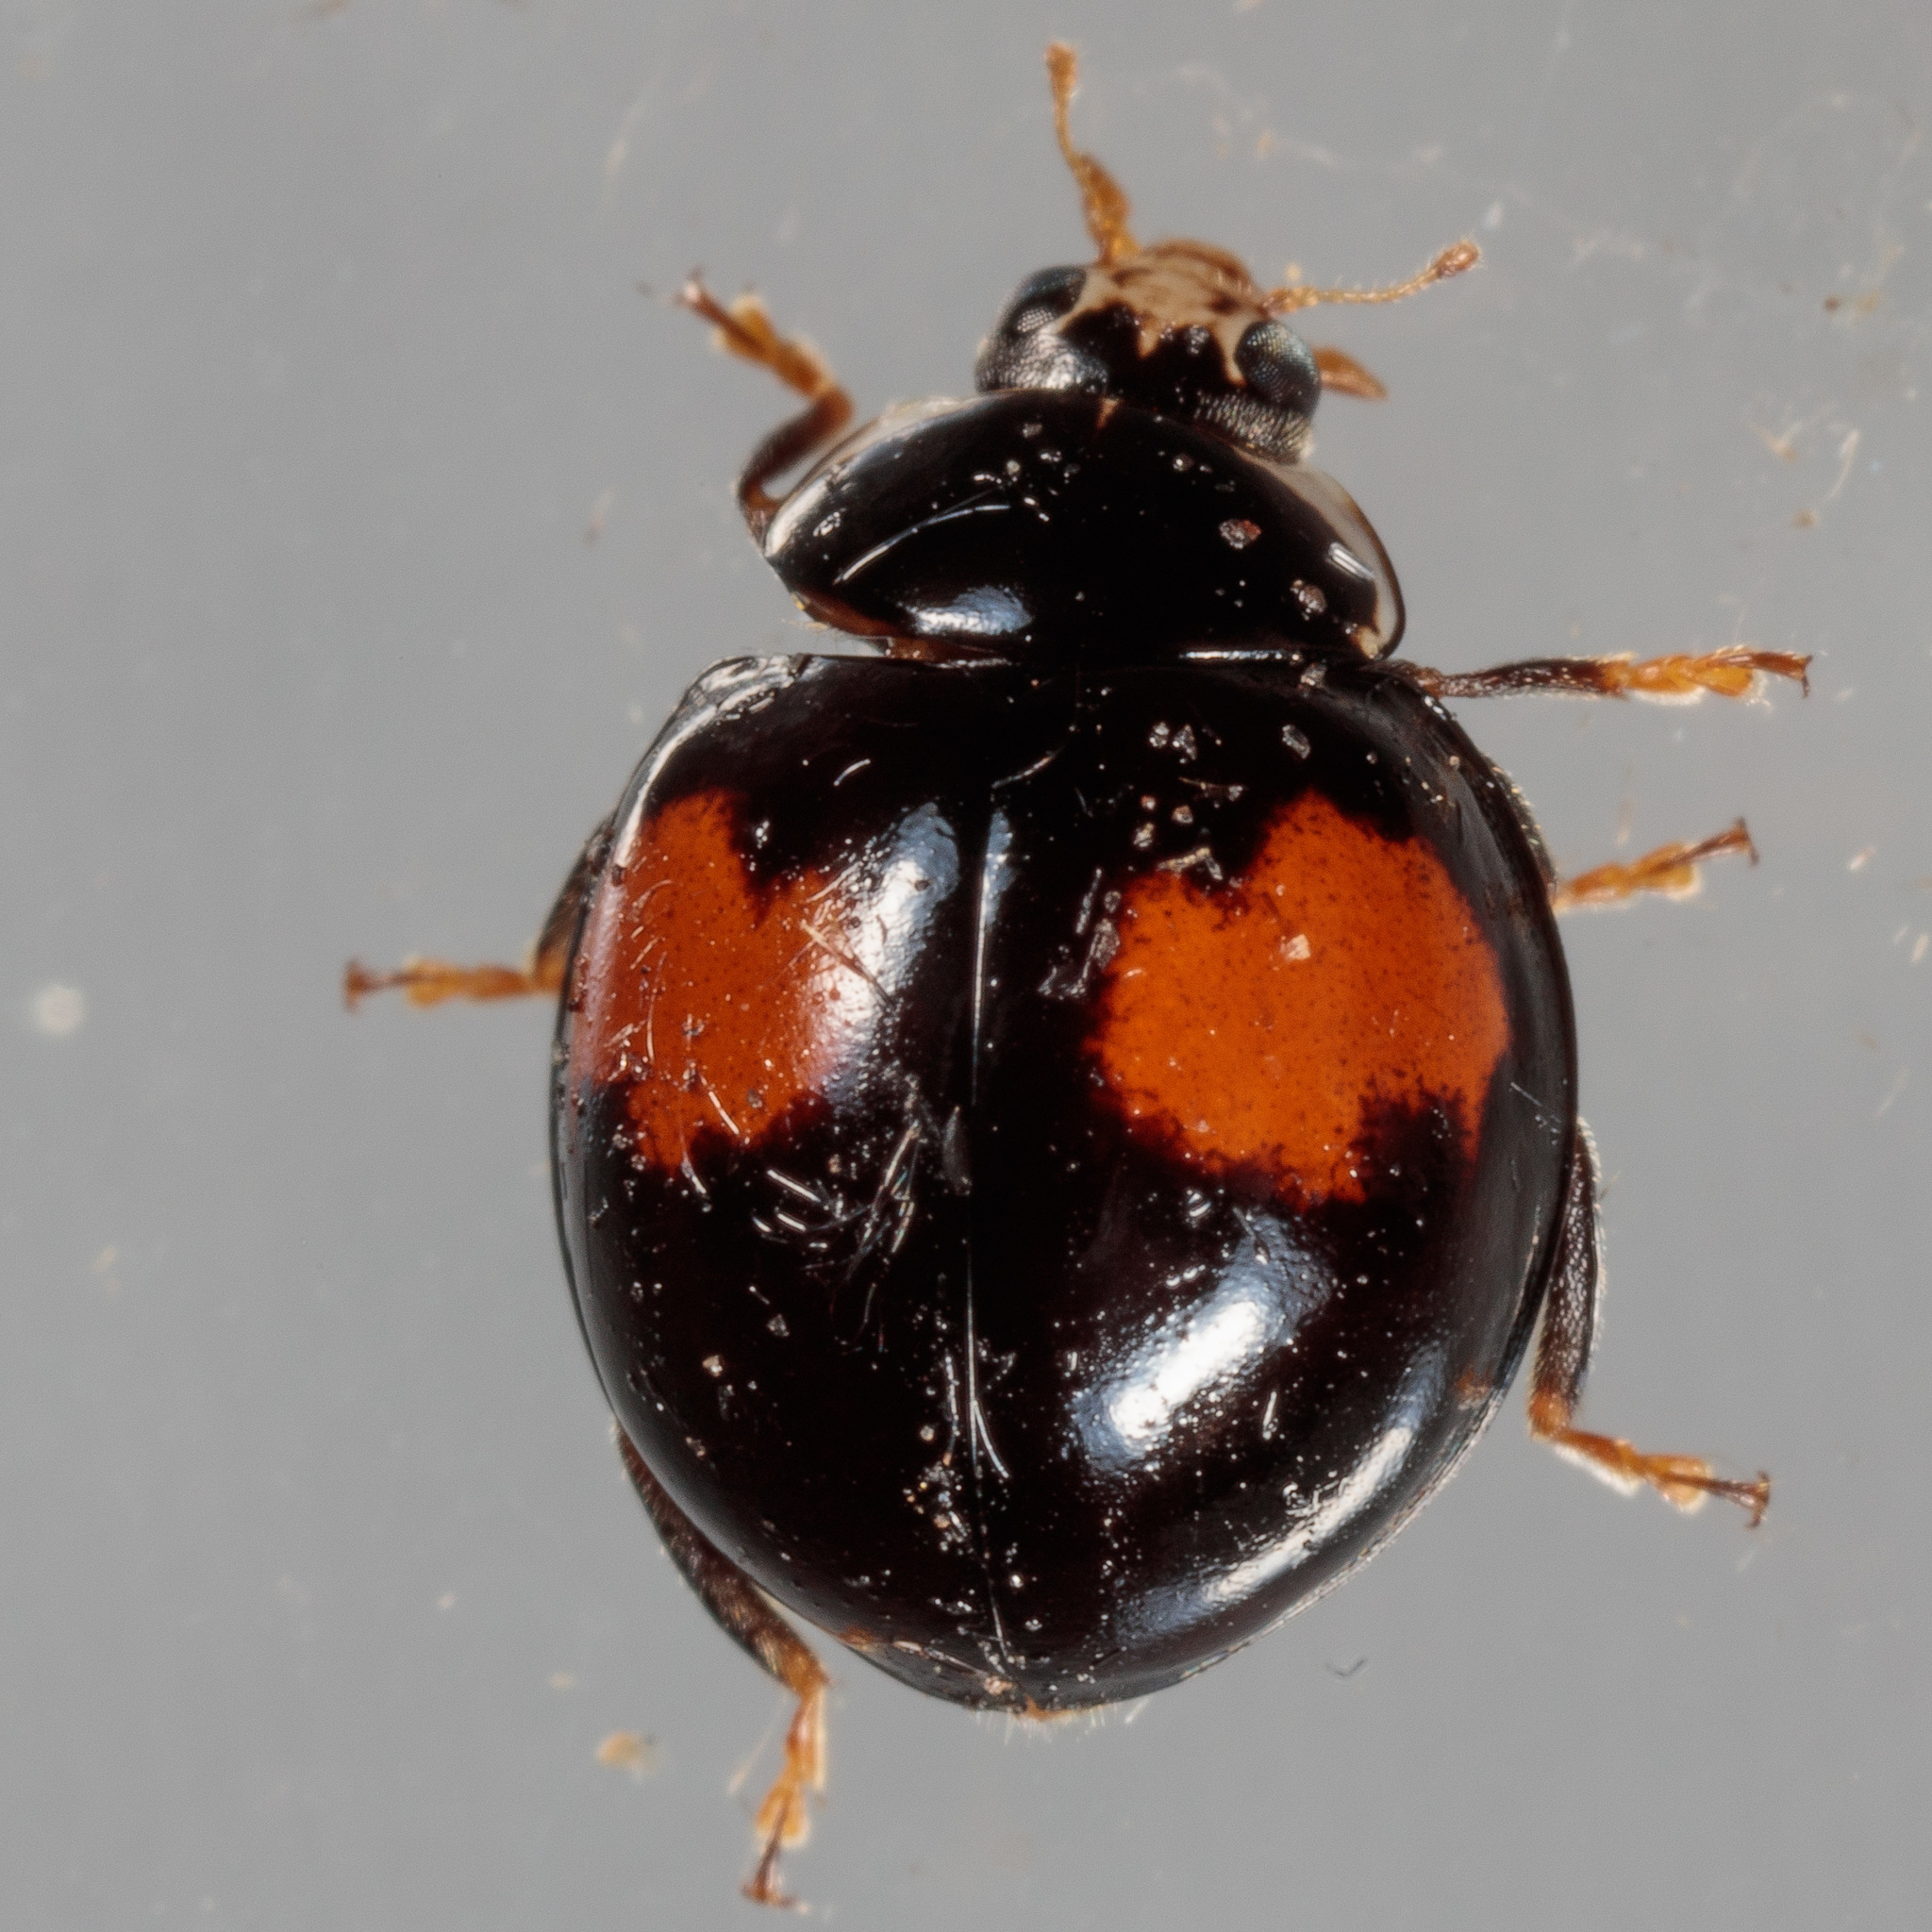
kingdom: Animalia
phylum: Arthropoda
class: Insecta
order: Coleoptera
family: Coccinellidae
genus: Olla
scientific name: Olla v-nigrum
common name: Ashy gray lady beetle
